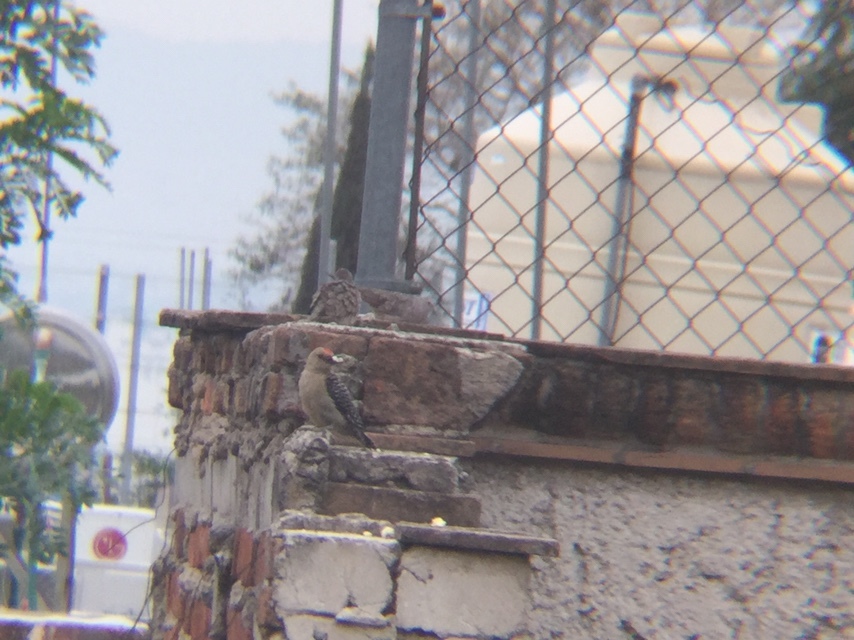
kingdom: Animalia
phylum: Chordata
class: Aves
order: Piciformes
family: Picidae
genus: Melanerpes
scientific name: Melanerpes aurifrons
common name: Golden-fronted woodpecker
